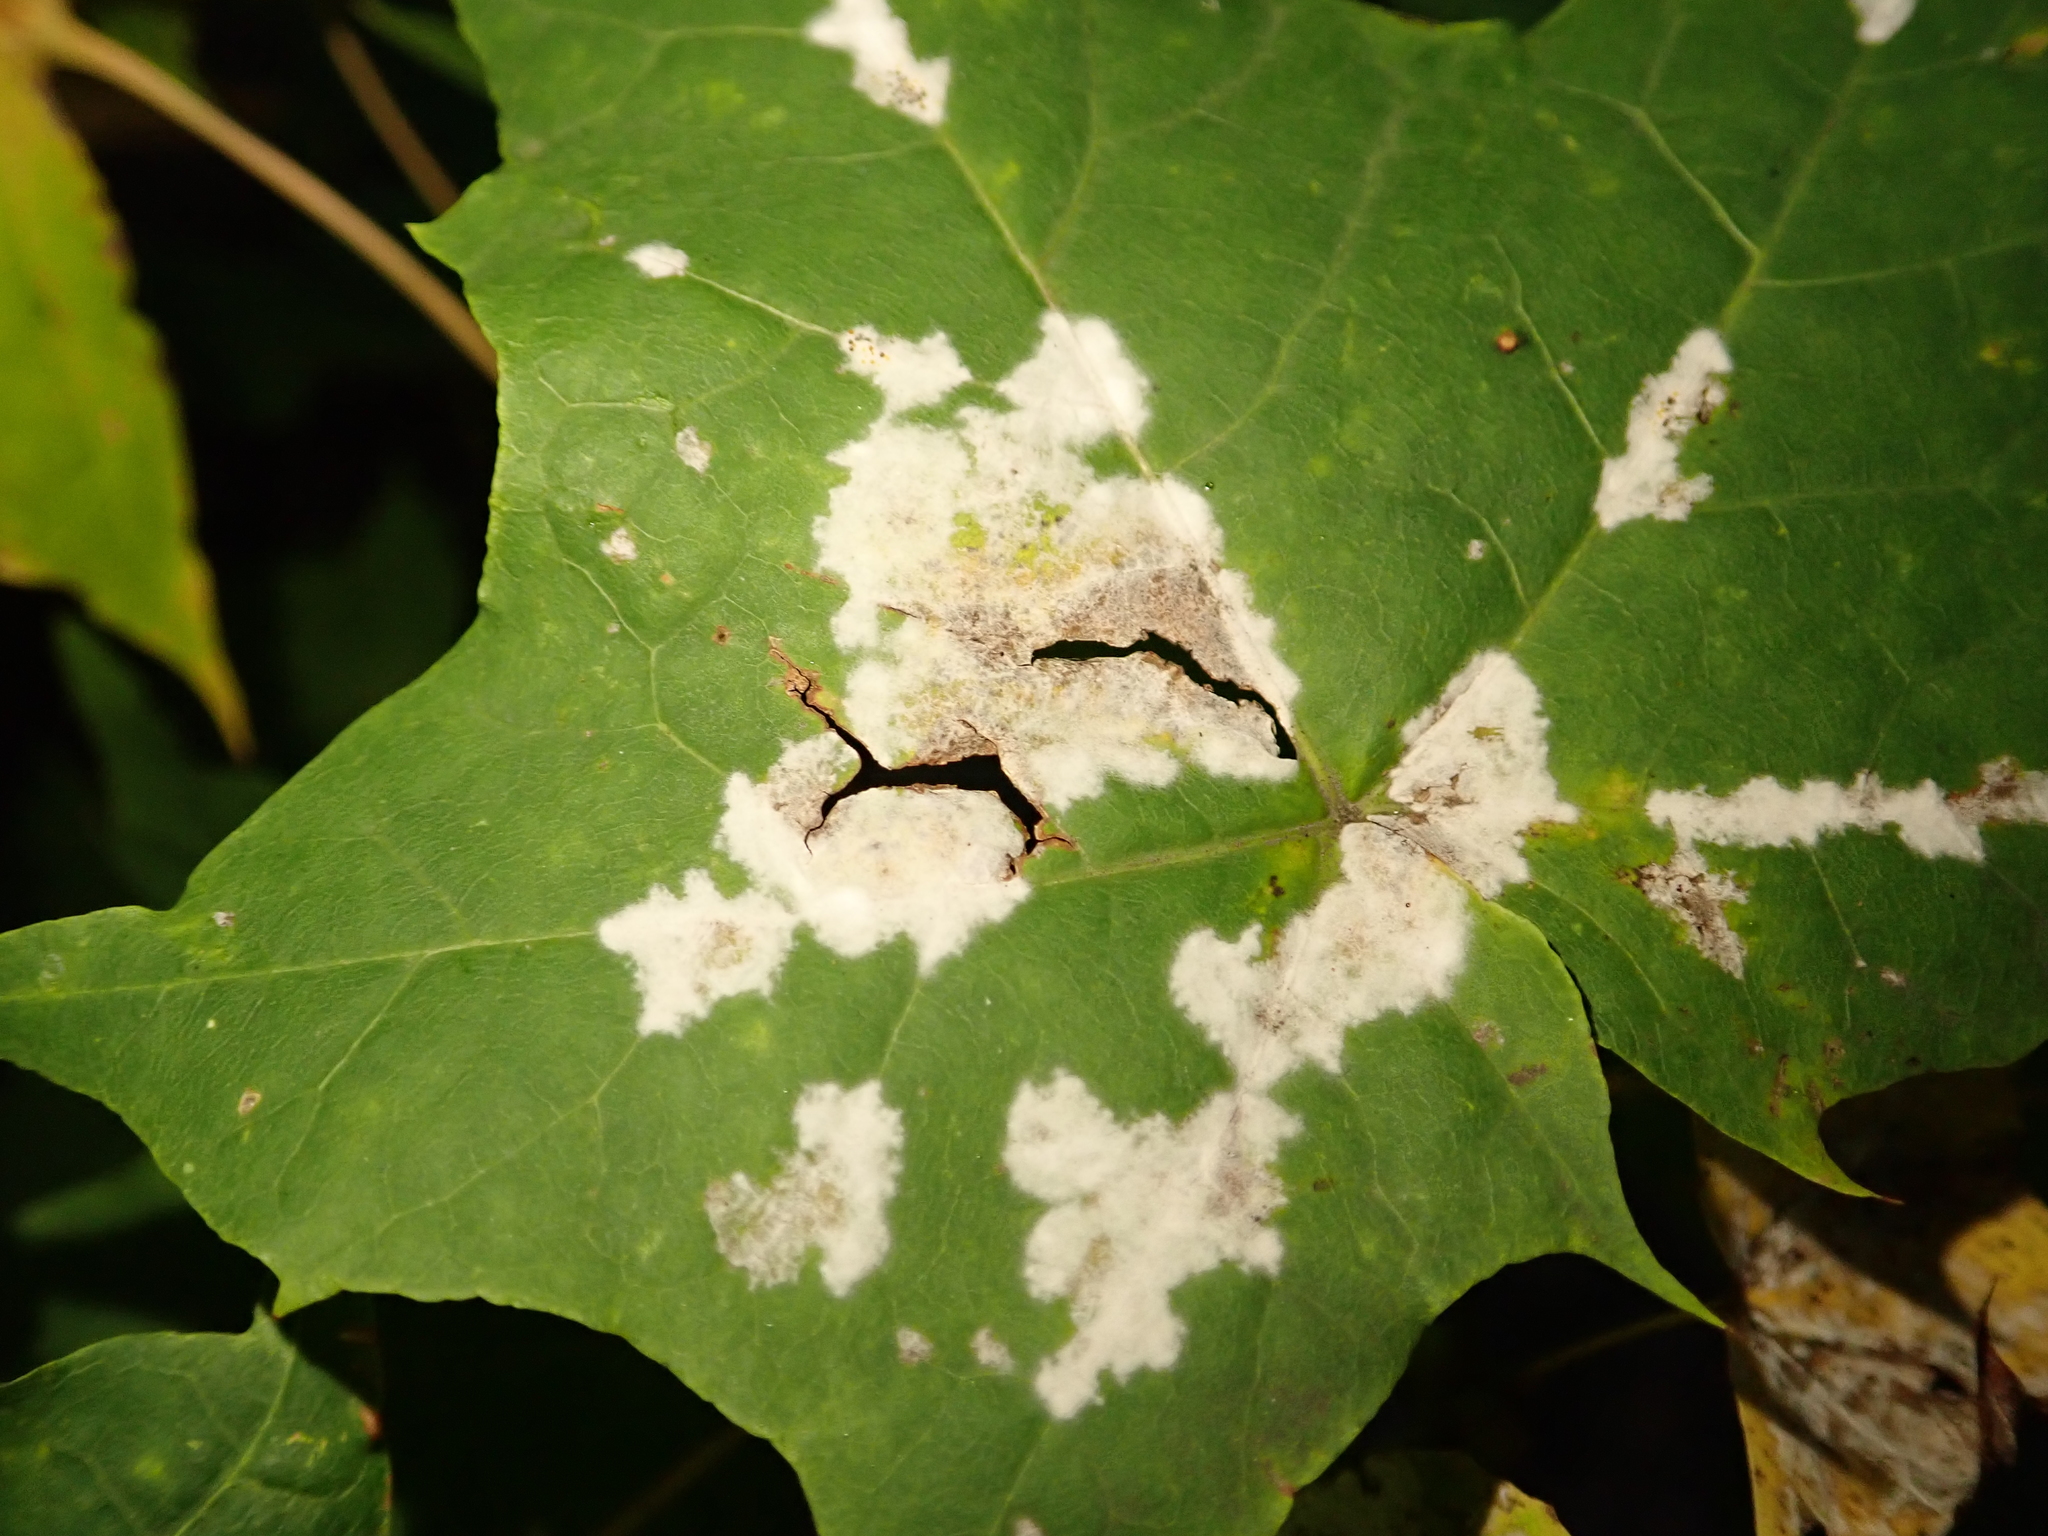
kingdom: Fungi
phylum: Ascomycota
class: Leotiomycetes
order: Helotiales
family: Erysiphaceae
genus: Sawadaea
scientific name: Sawadaea tulasnei
